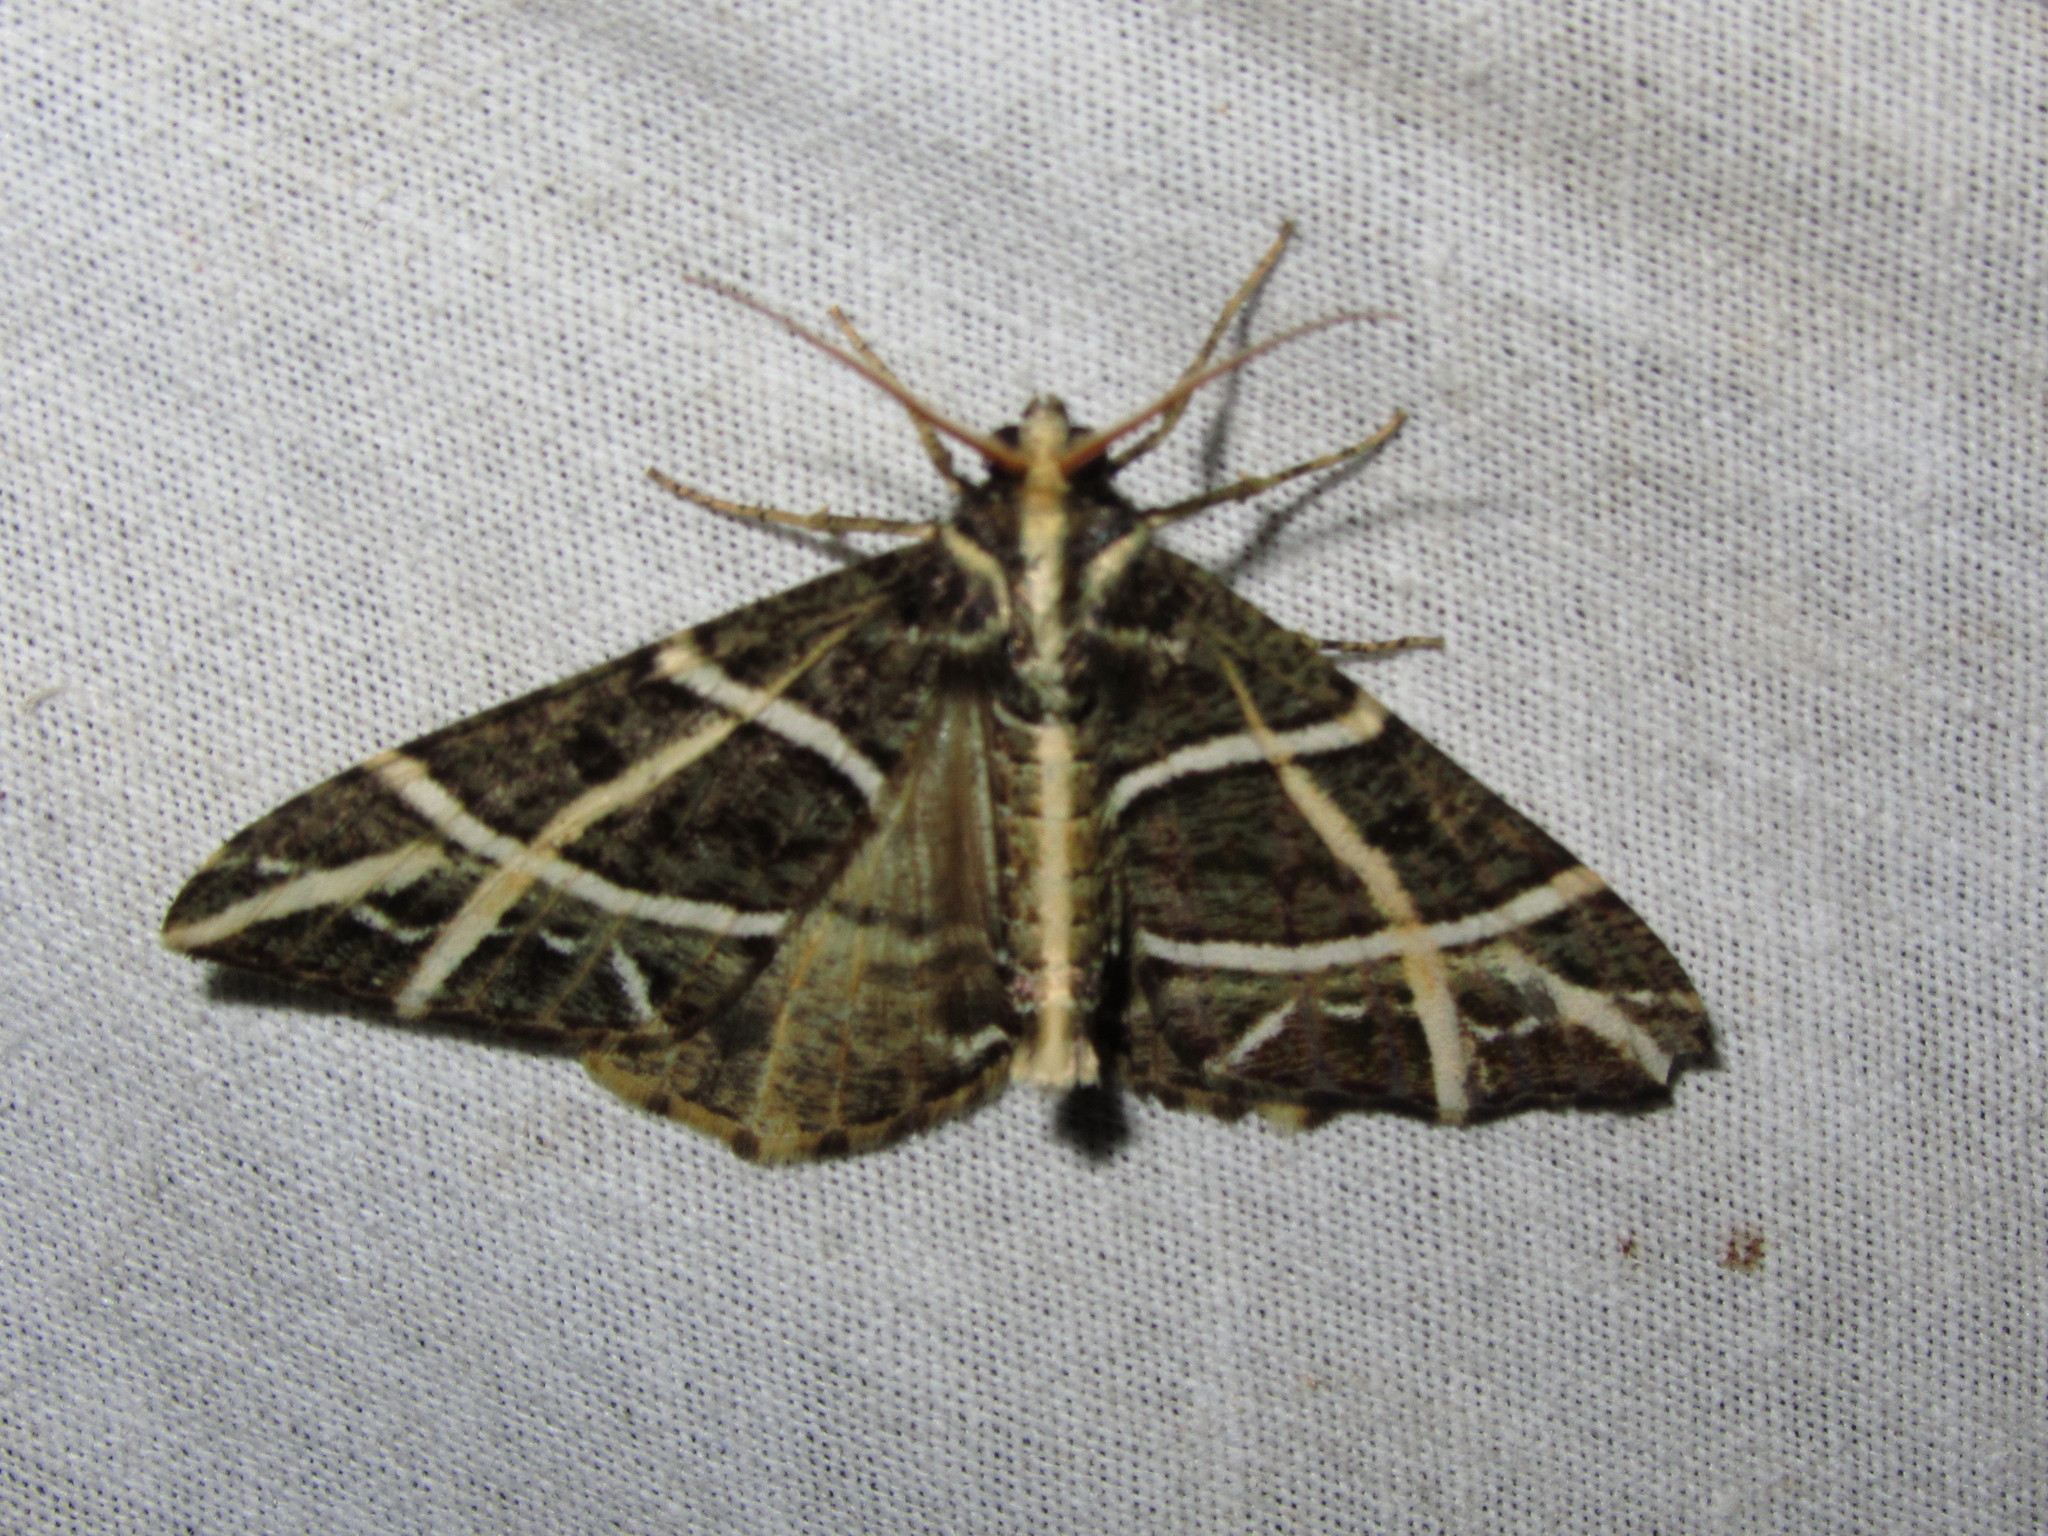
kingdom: Animalia
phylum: Arthropoda
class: Insecta
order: Lepidoptera
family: Geometridae
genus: Arichanna
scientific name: Arichanna transfasciata
